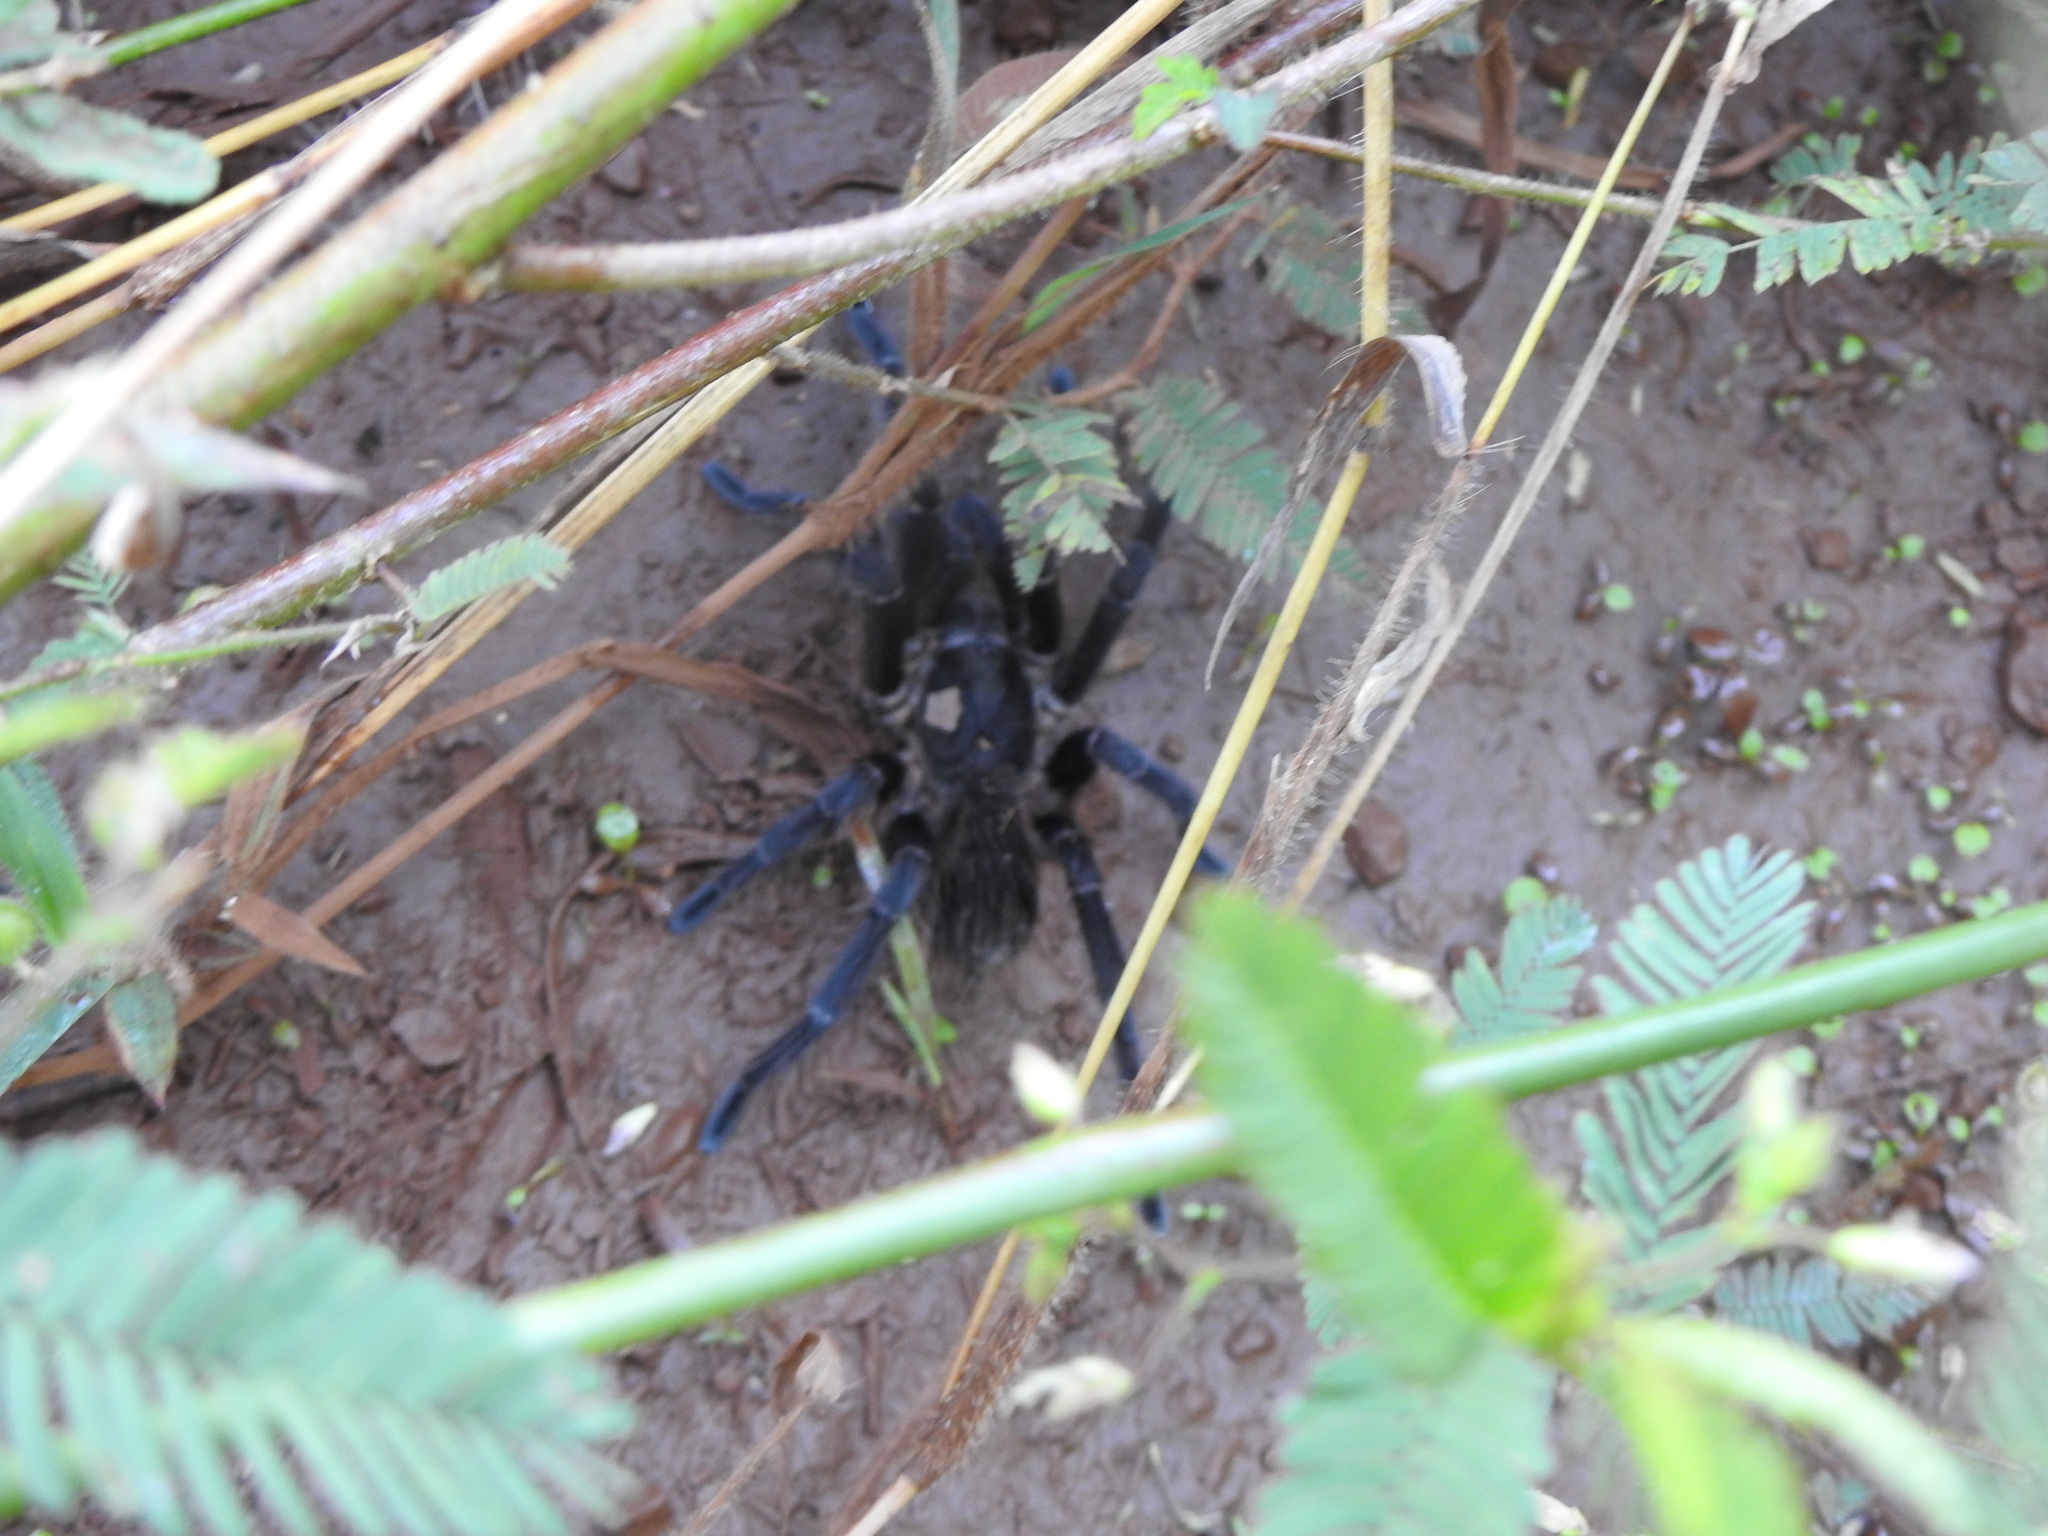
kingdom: Animalia
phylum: Arthropoda
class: Arachnida
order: Araneae
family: Theraphosidae
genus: Pterinopelma
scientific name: Pterinopelma longisternale
